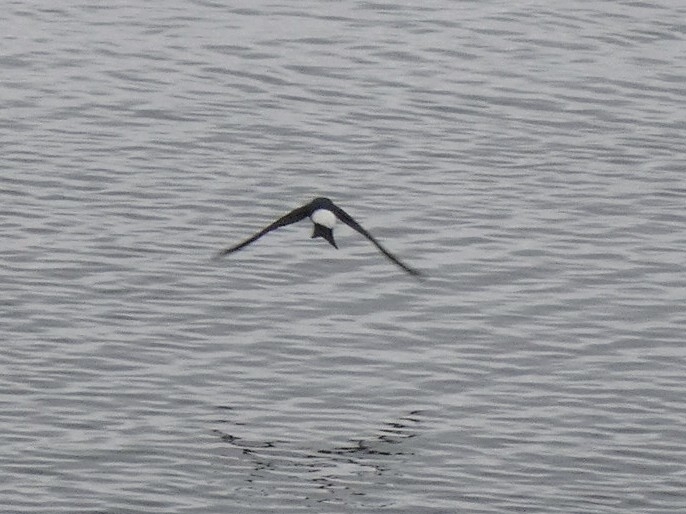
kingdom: Animalia
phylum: Chordata
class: Aves
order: Passeriformes
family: Hirundinidae
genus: Delichon
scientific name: Delichon urbicum
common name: Common house martin
